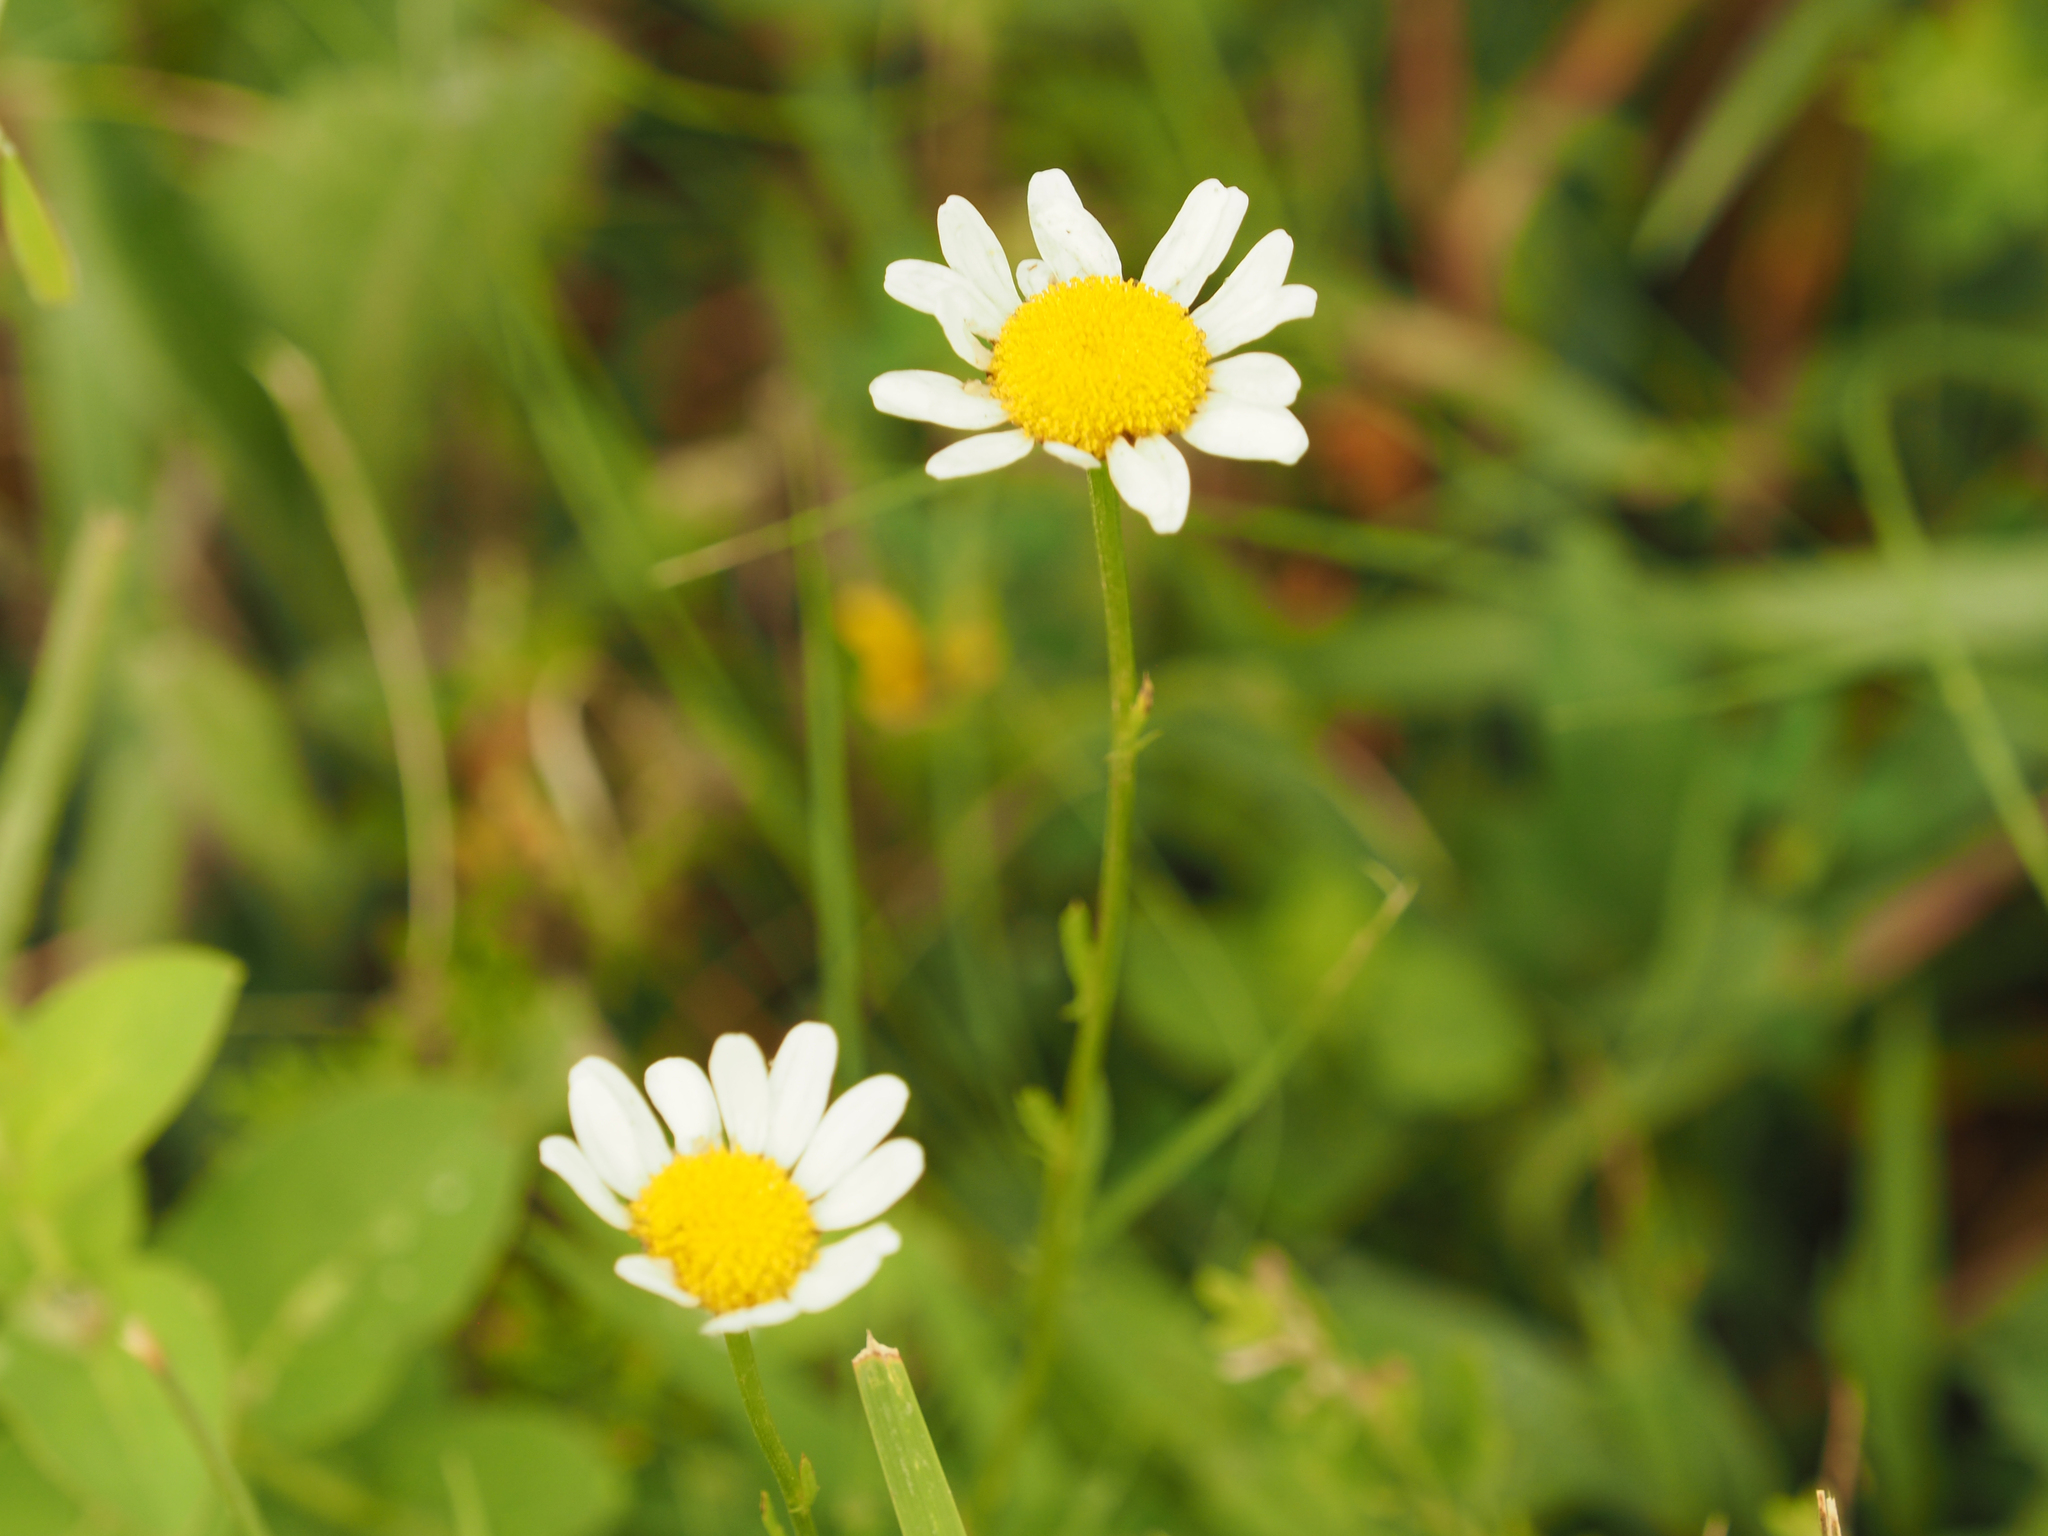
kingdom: Plantae
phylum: Tracheophyta
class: Magnoliopsida
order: Asterales
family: Asteraceae
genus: Leucanthemum
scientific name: Leucanthemum vulgare
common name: Oxeye daisy
